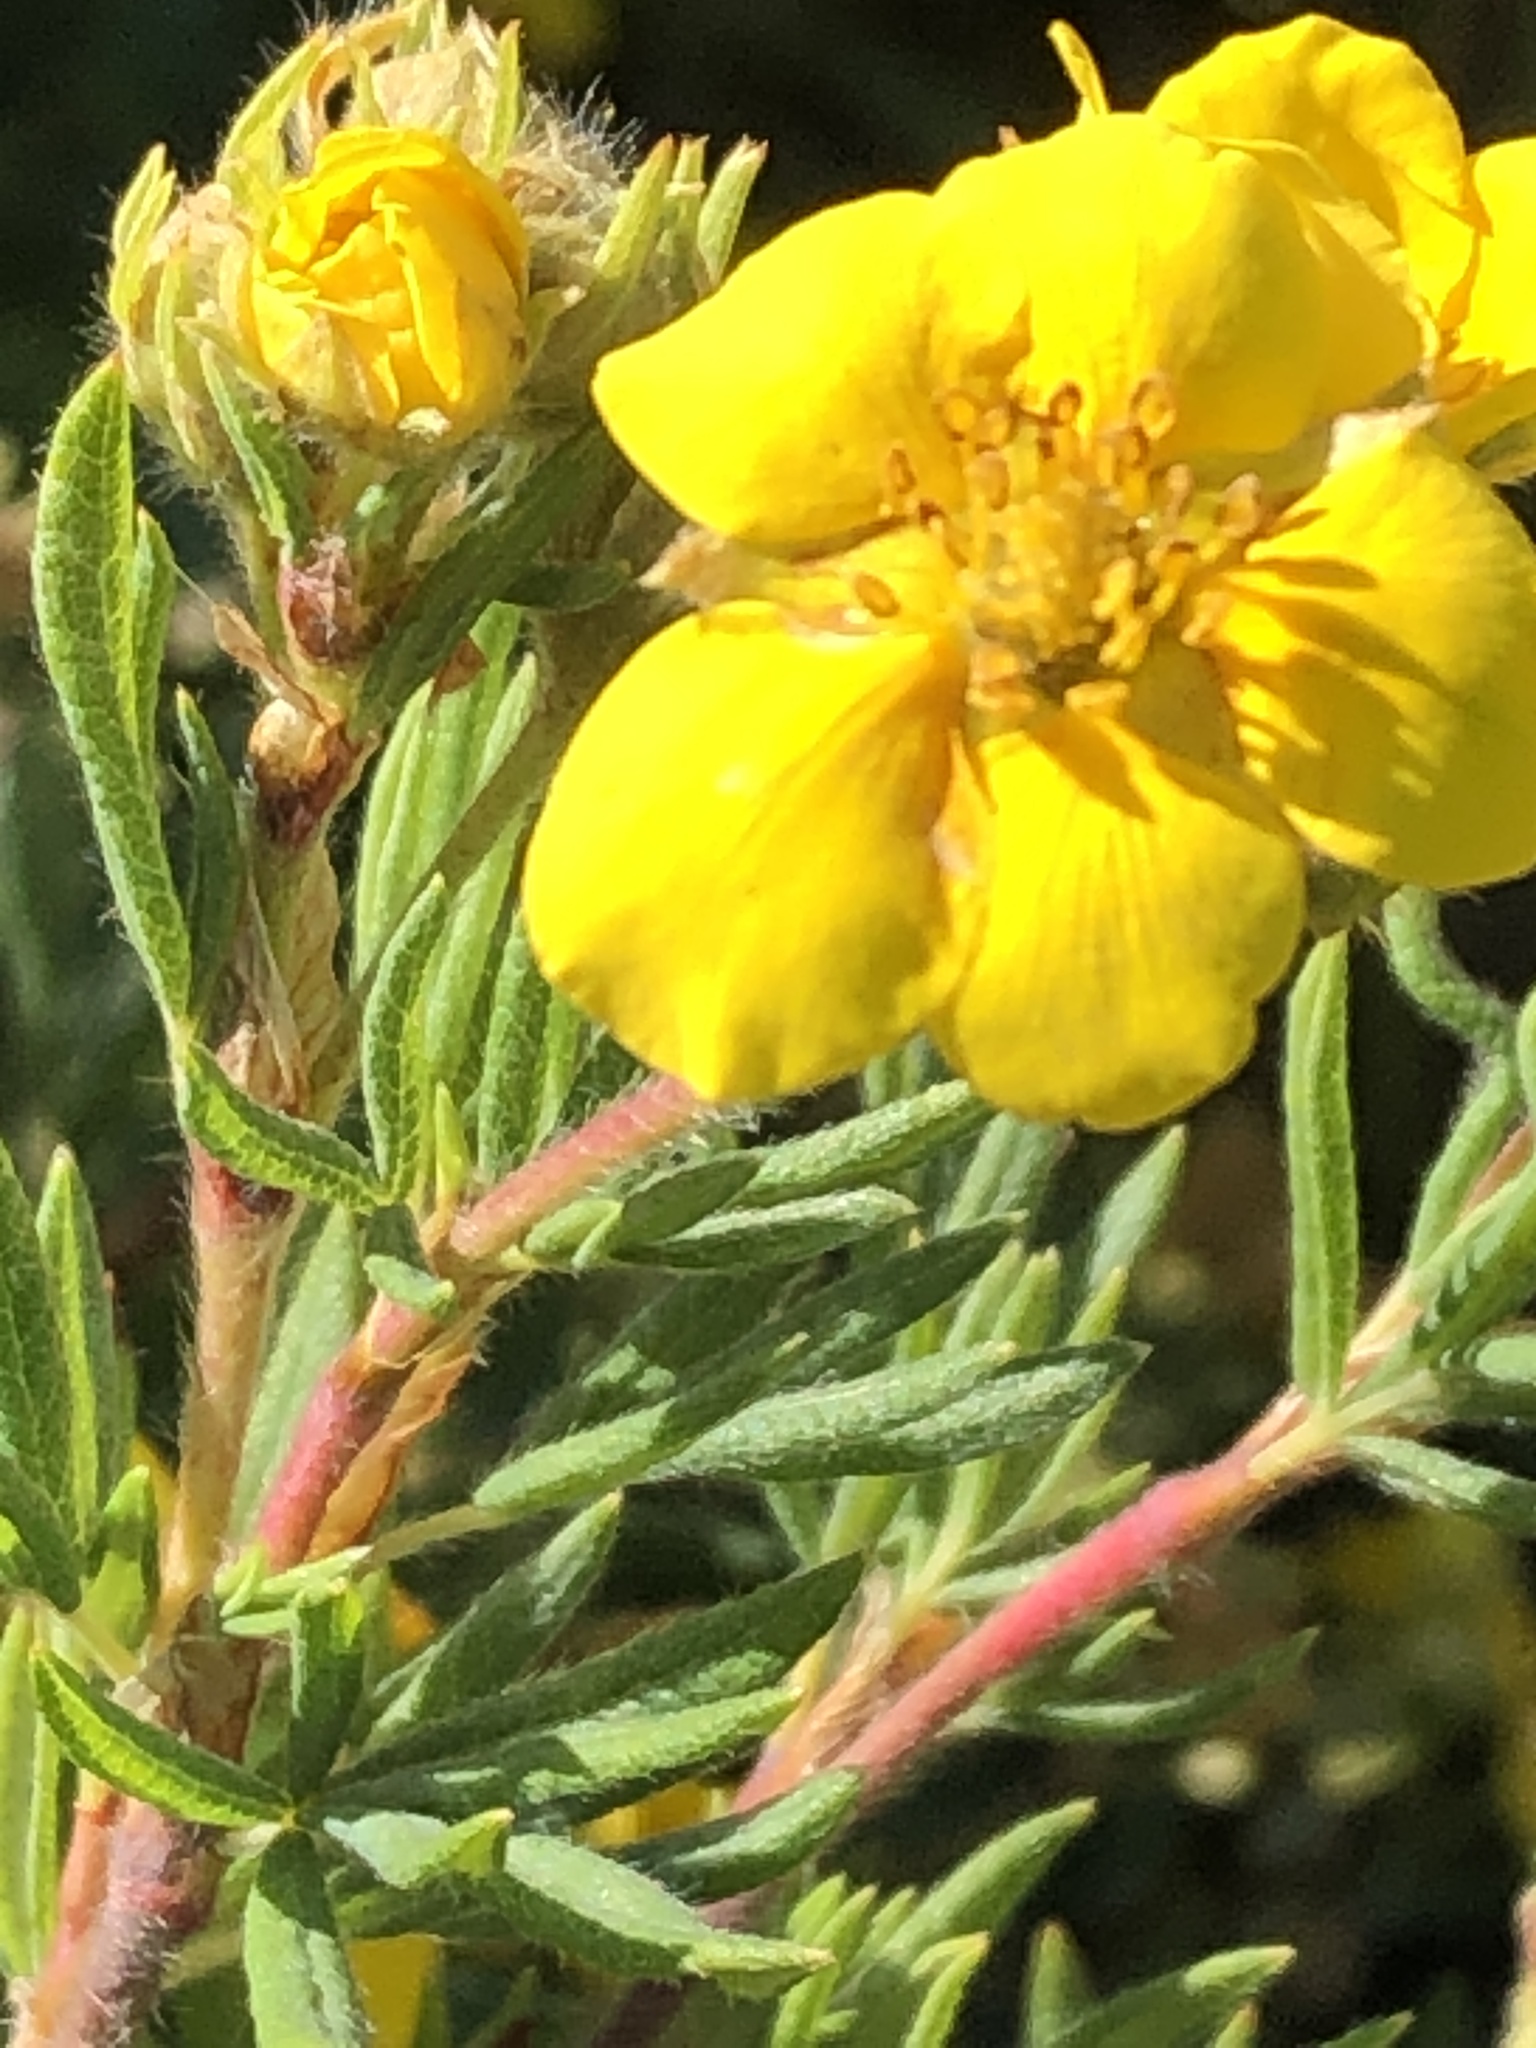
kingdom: Plantae
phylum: Tracheophyta
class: Magnoliopsida
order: Rosales
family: Rosaceae
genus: Dasiphora
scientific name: Dasiphora fruticosa
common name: Shrubby cinquefoil
